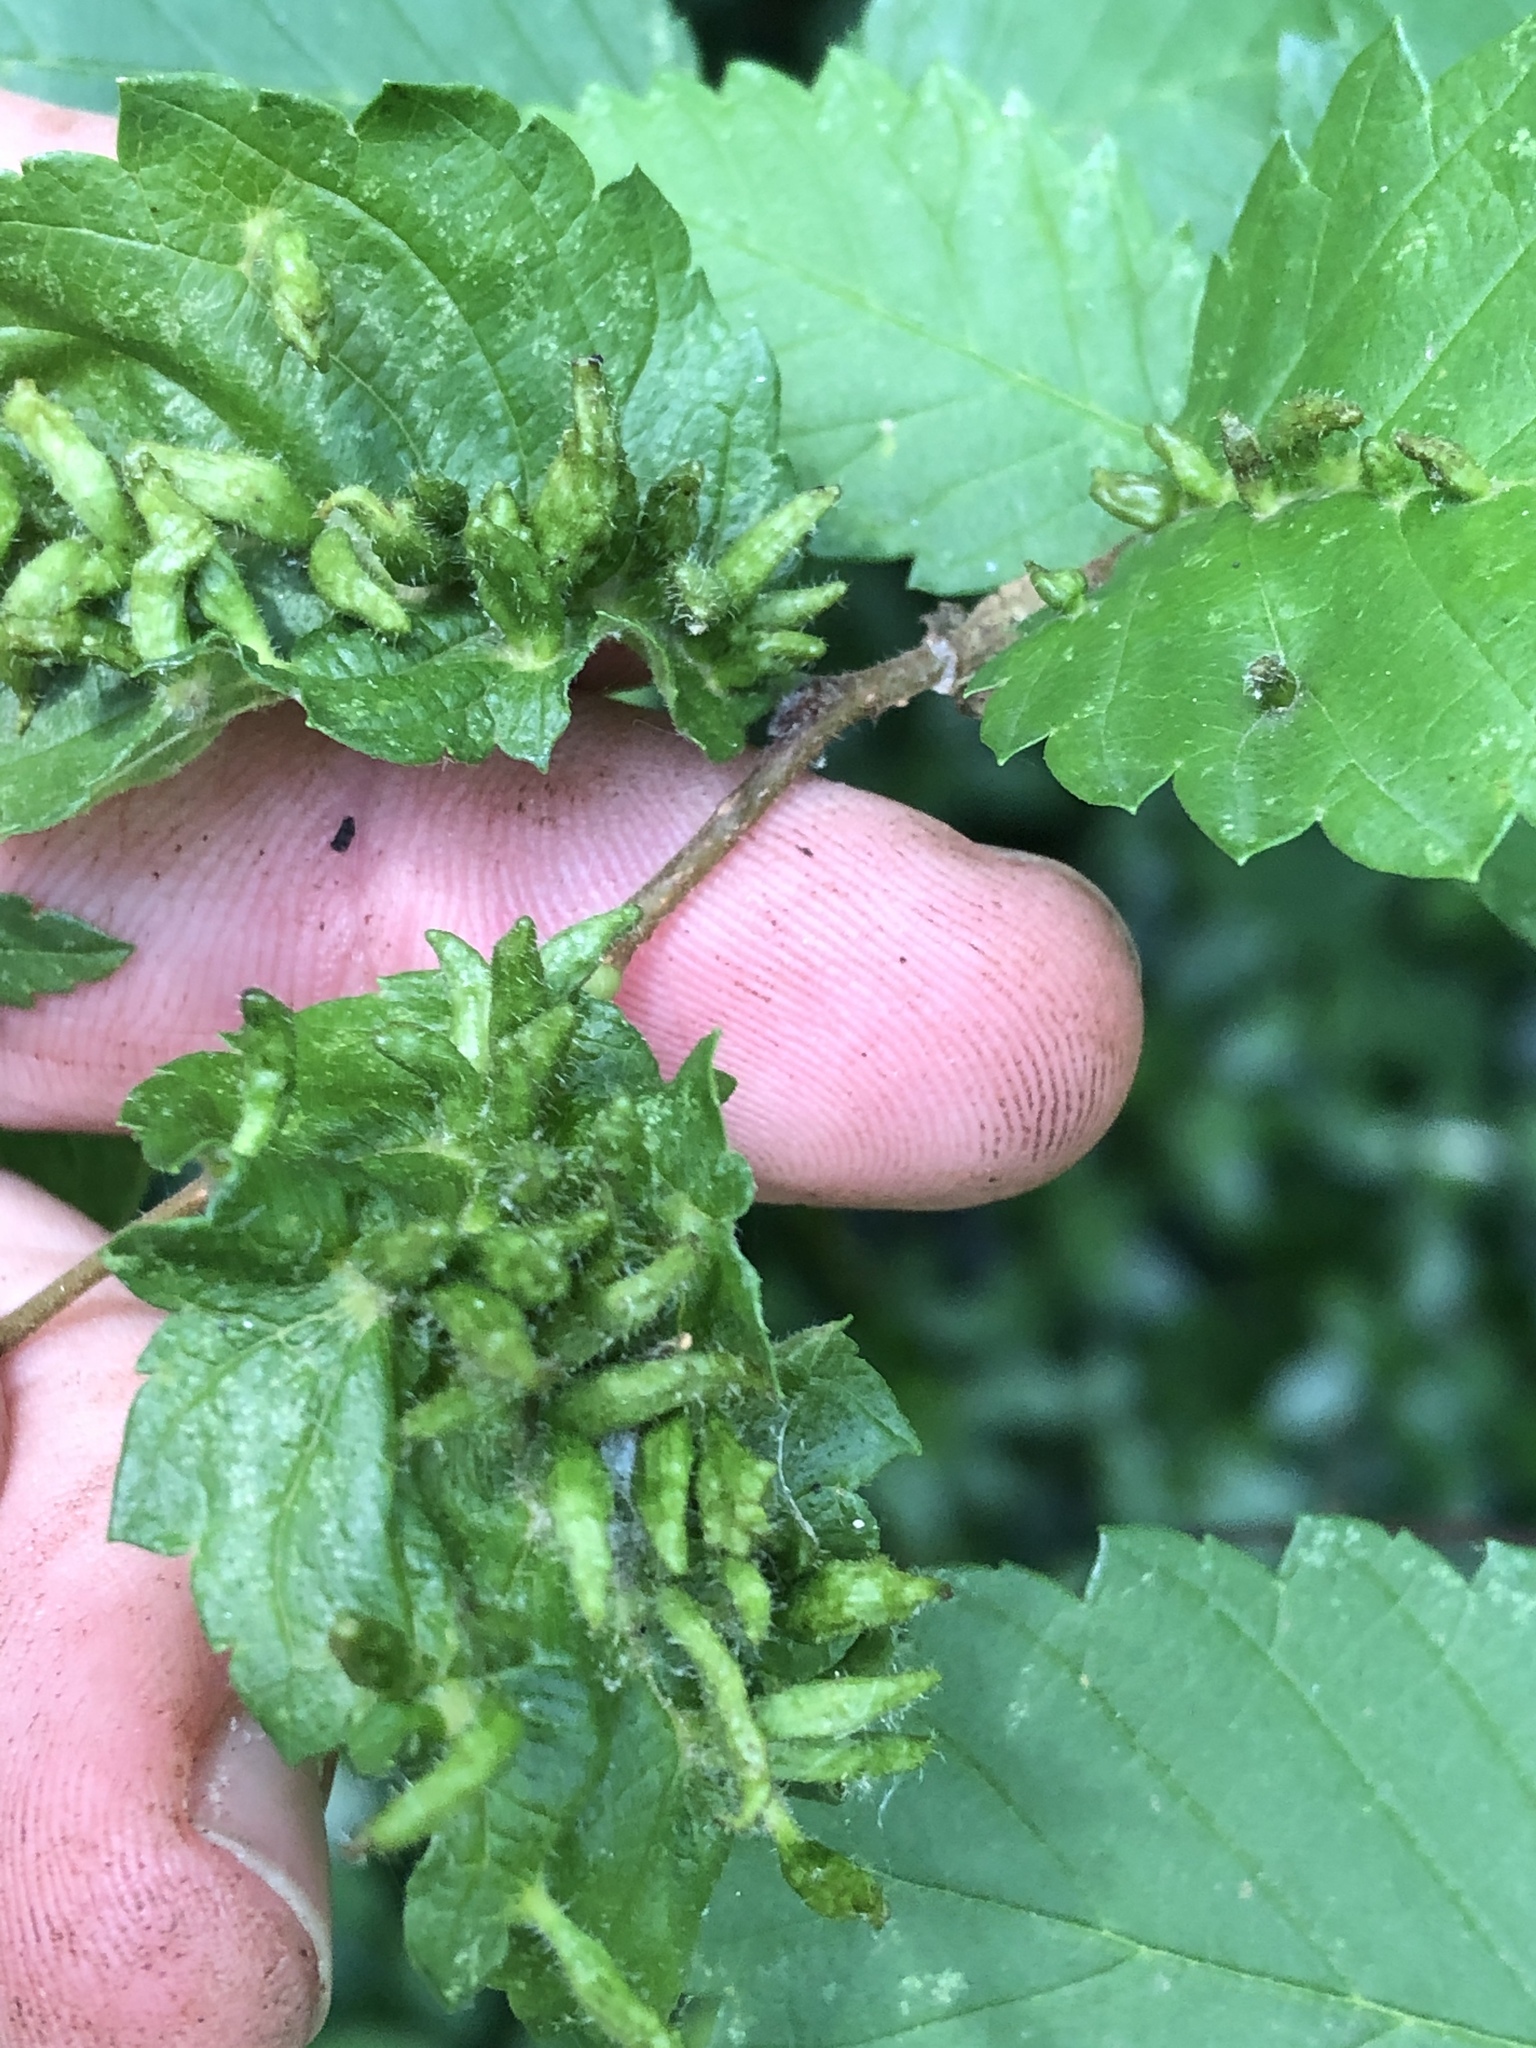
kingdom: Animalia
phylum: Arthropoda
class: Arachnida
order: Trombidiformes
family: Eriophyidae
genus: Aceria
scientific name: Aceria
